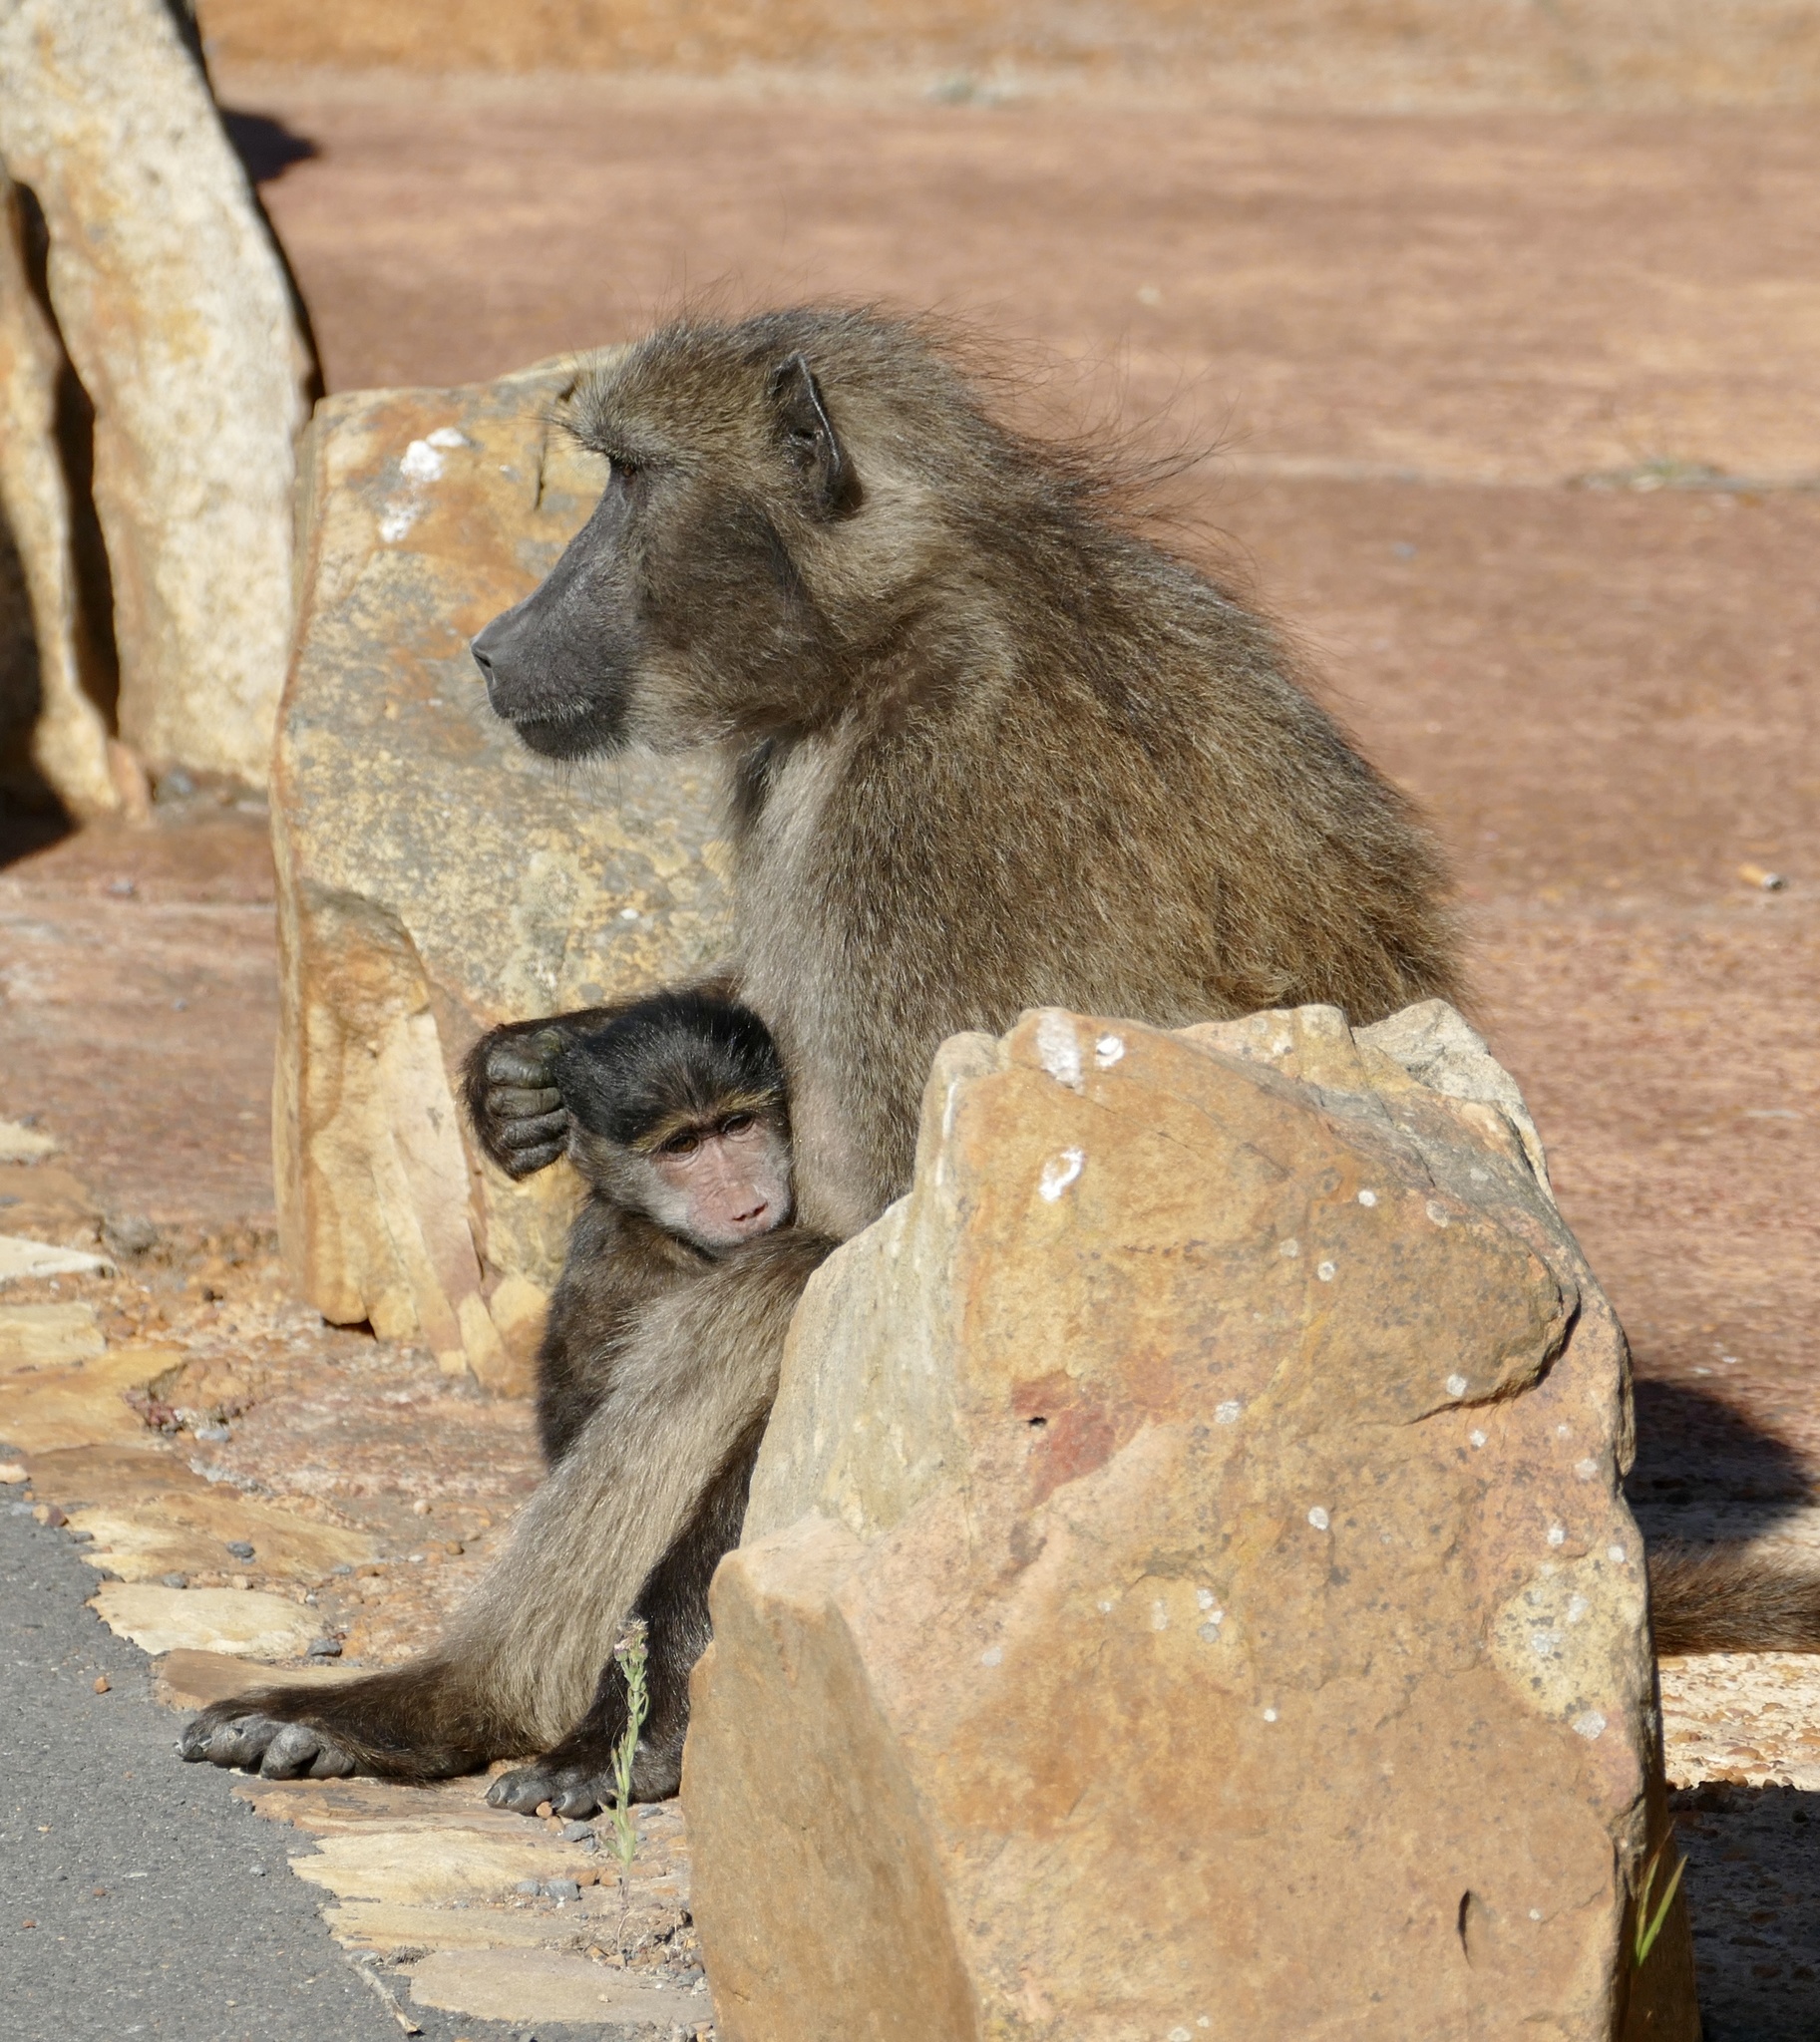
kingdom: Animalia
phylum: Chordata
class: Mammalia
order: Primates
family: Cercopithecidae
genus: Papio
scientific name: Papio ursinus
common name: Chacma baboon
